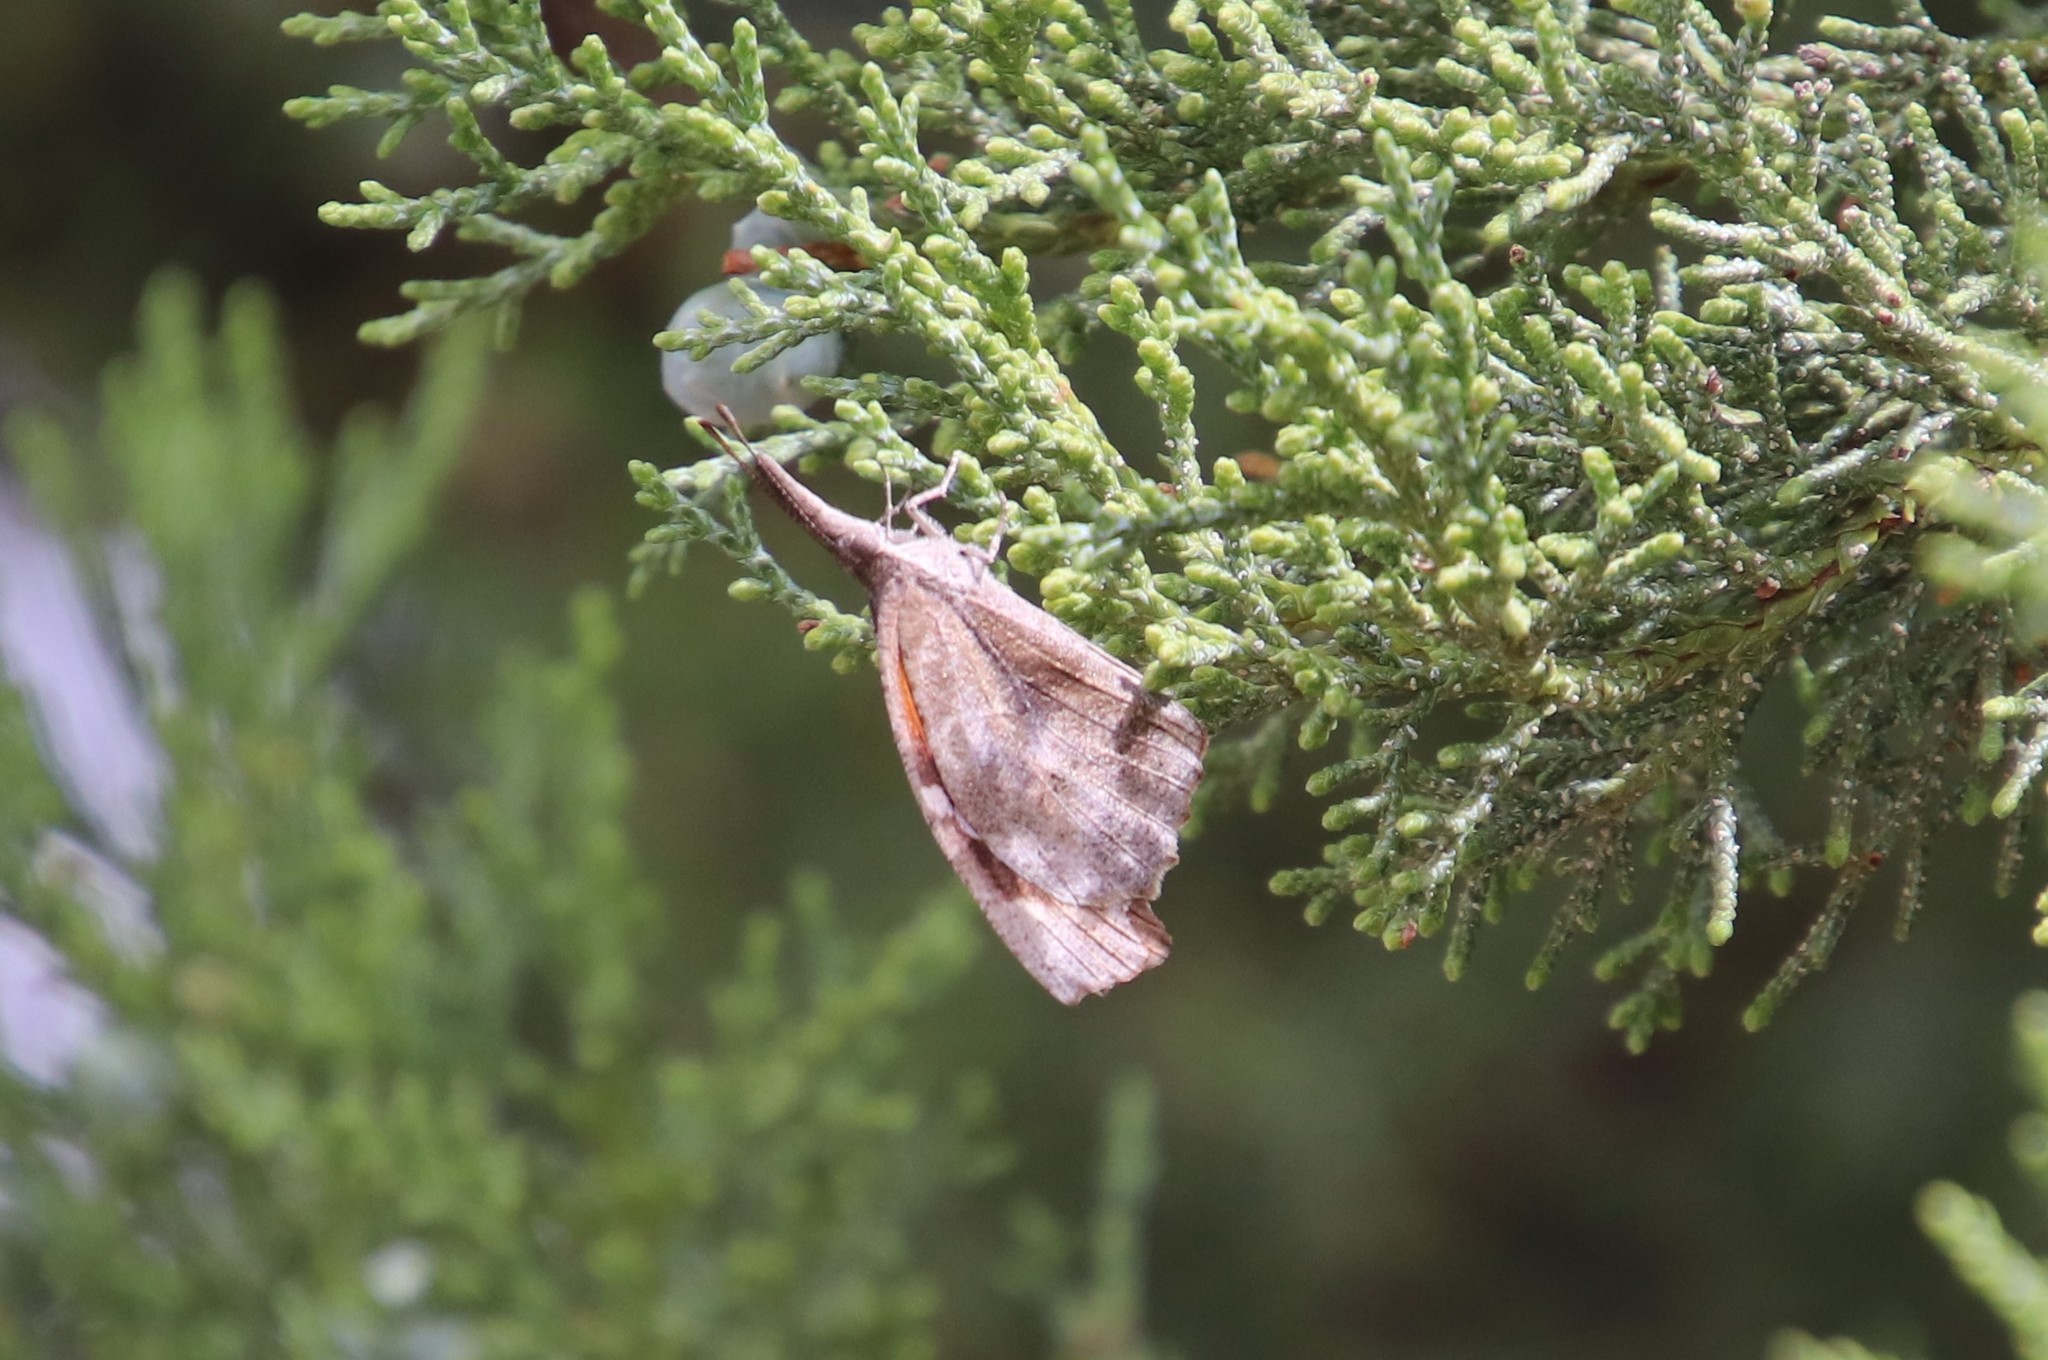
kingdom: Animalia
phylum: Arthropoda
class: Insecta
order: Lepidoptera
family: Nymphalidae
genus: Libytheana
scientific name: Libytheana carinenta
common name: American snout
